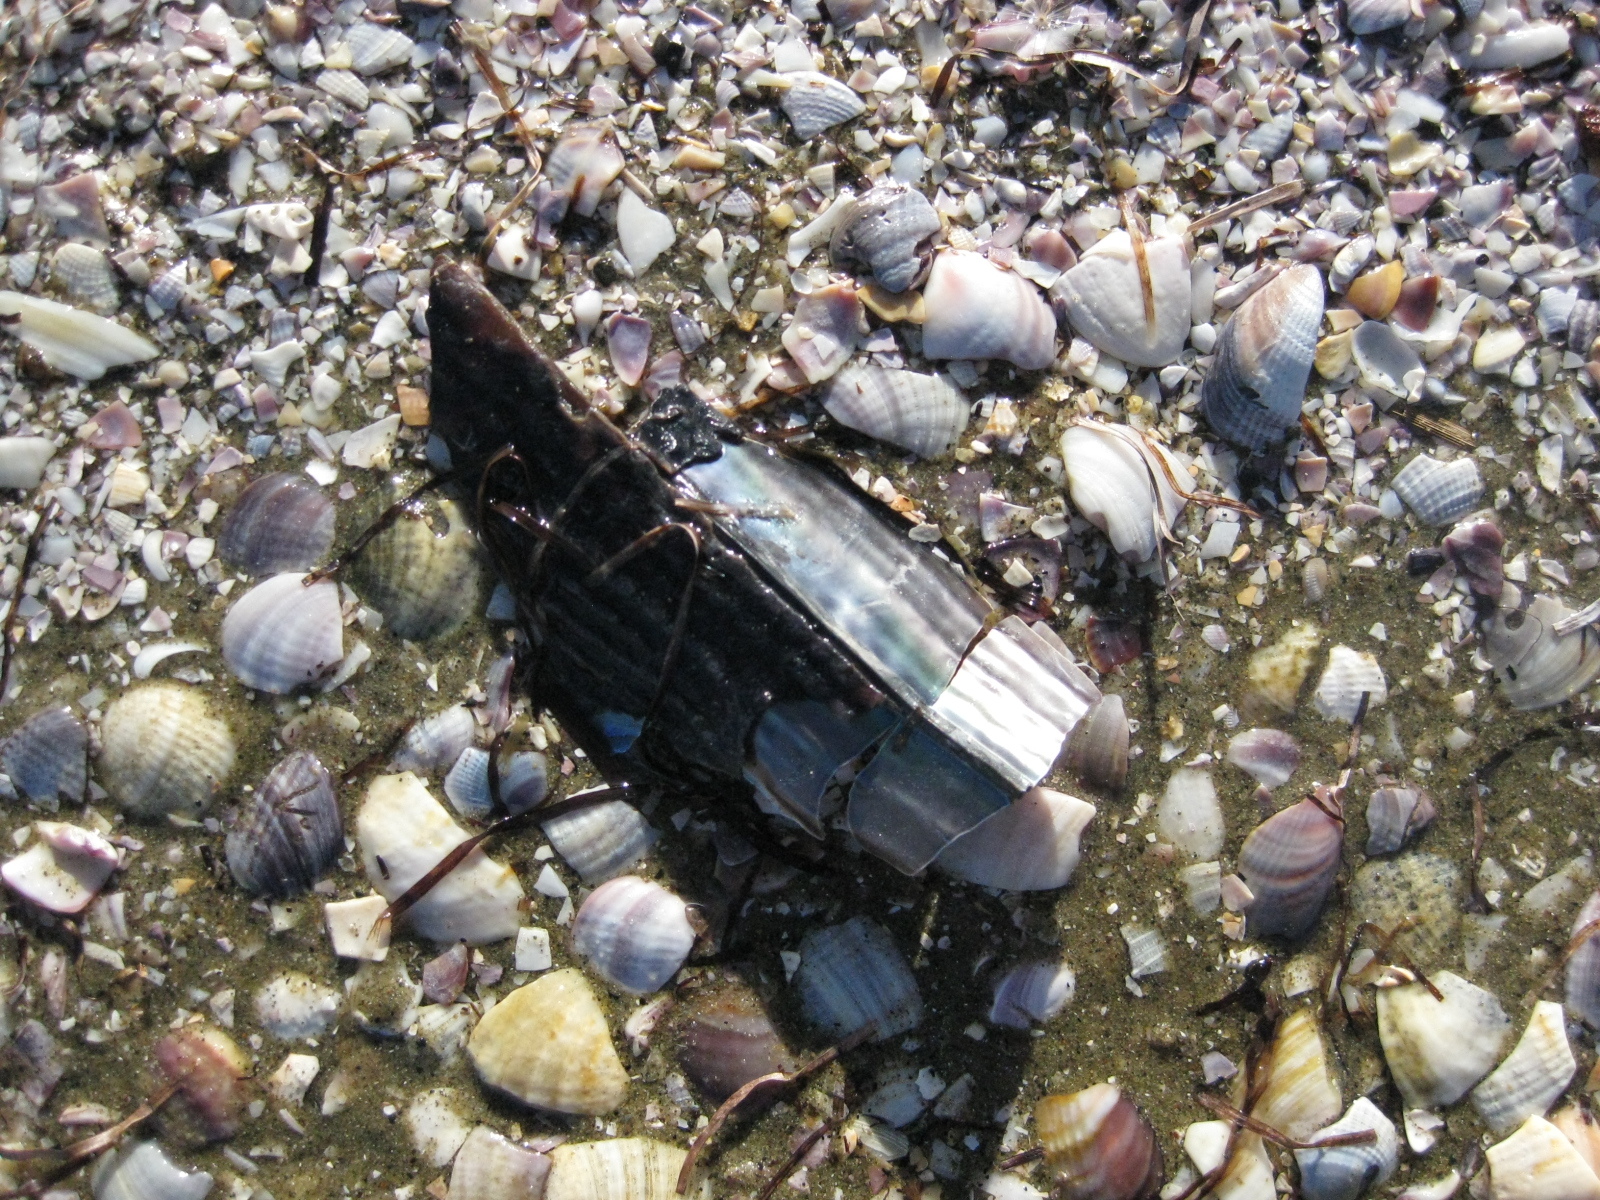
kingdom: Animalia
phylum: Mollusca
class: Bivalvia
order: Ostreida
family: Pinnidae
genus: Atrina
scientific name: Atrina zelandica
